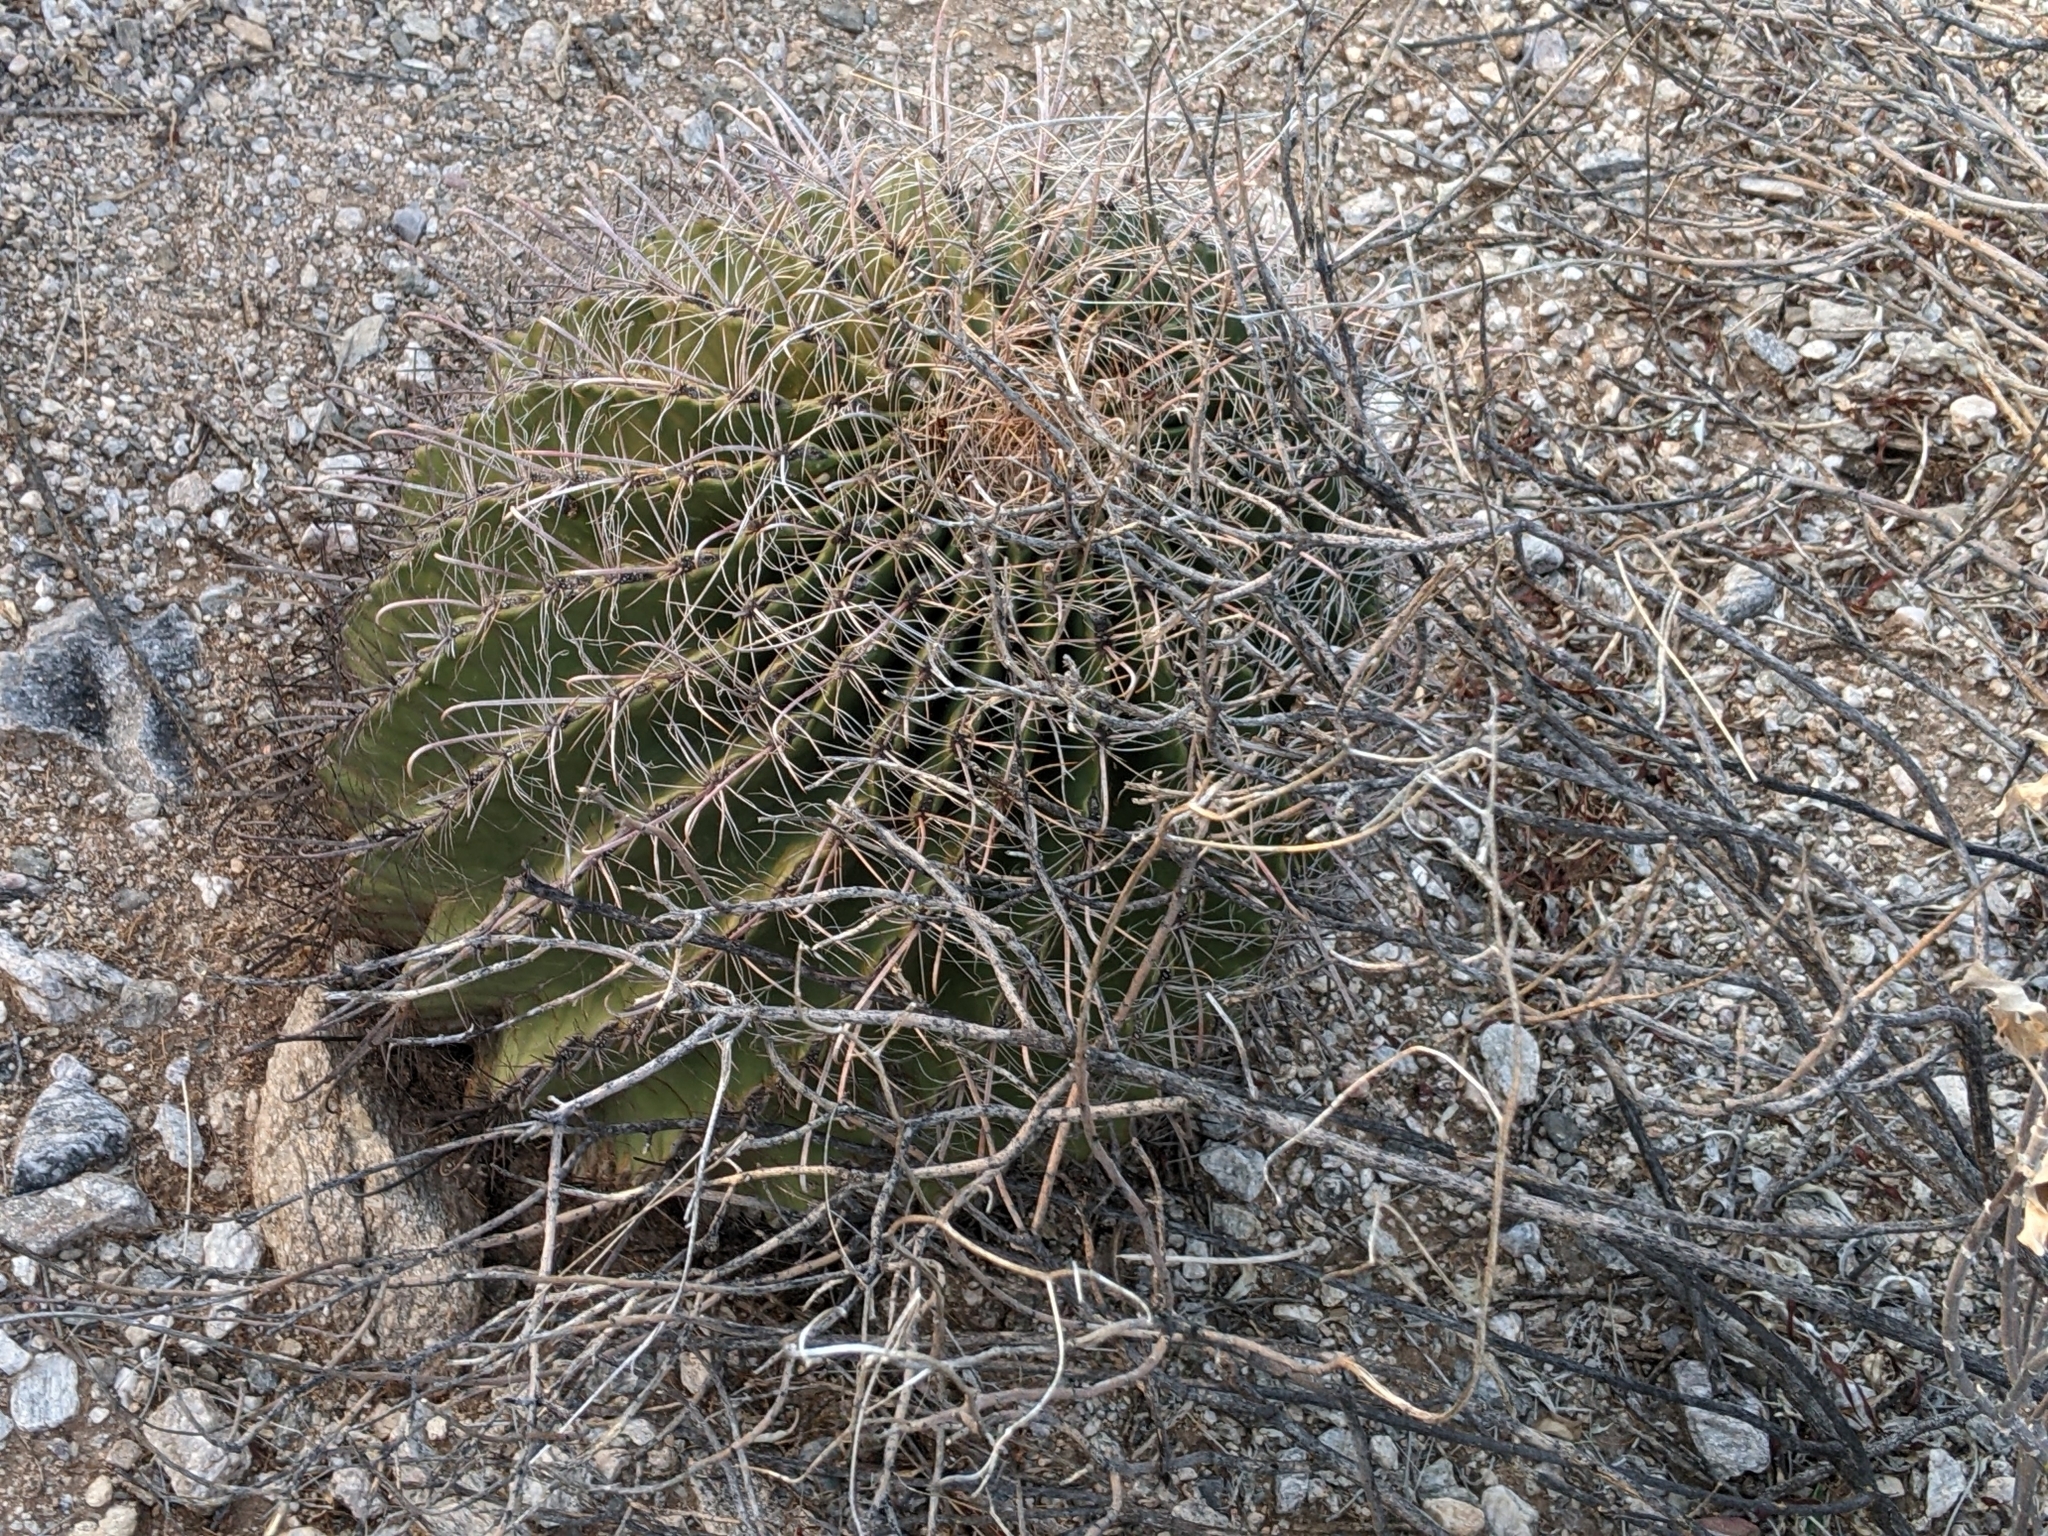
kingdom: Plantae
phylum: Tracheophyta
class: Magnoliopsida
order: Caryophyllales
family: Cactaceae
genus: Ferocactus
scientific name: Ferocactus wislizeni
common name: Candy barrel cactus
